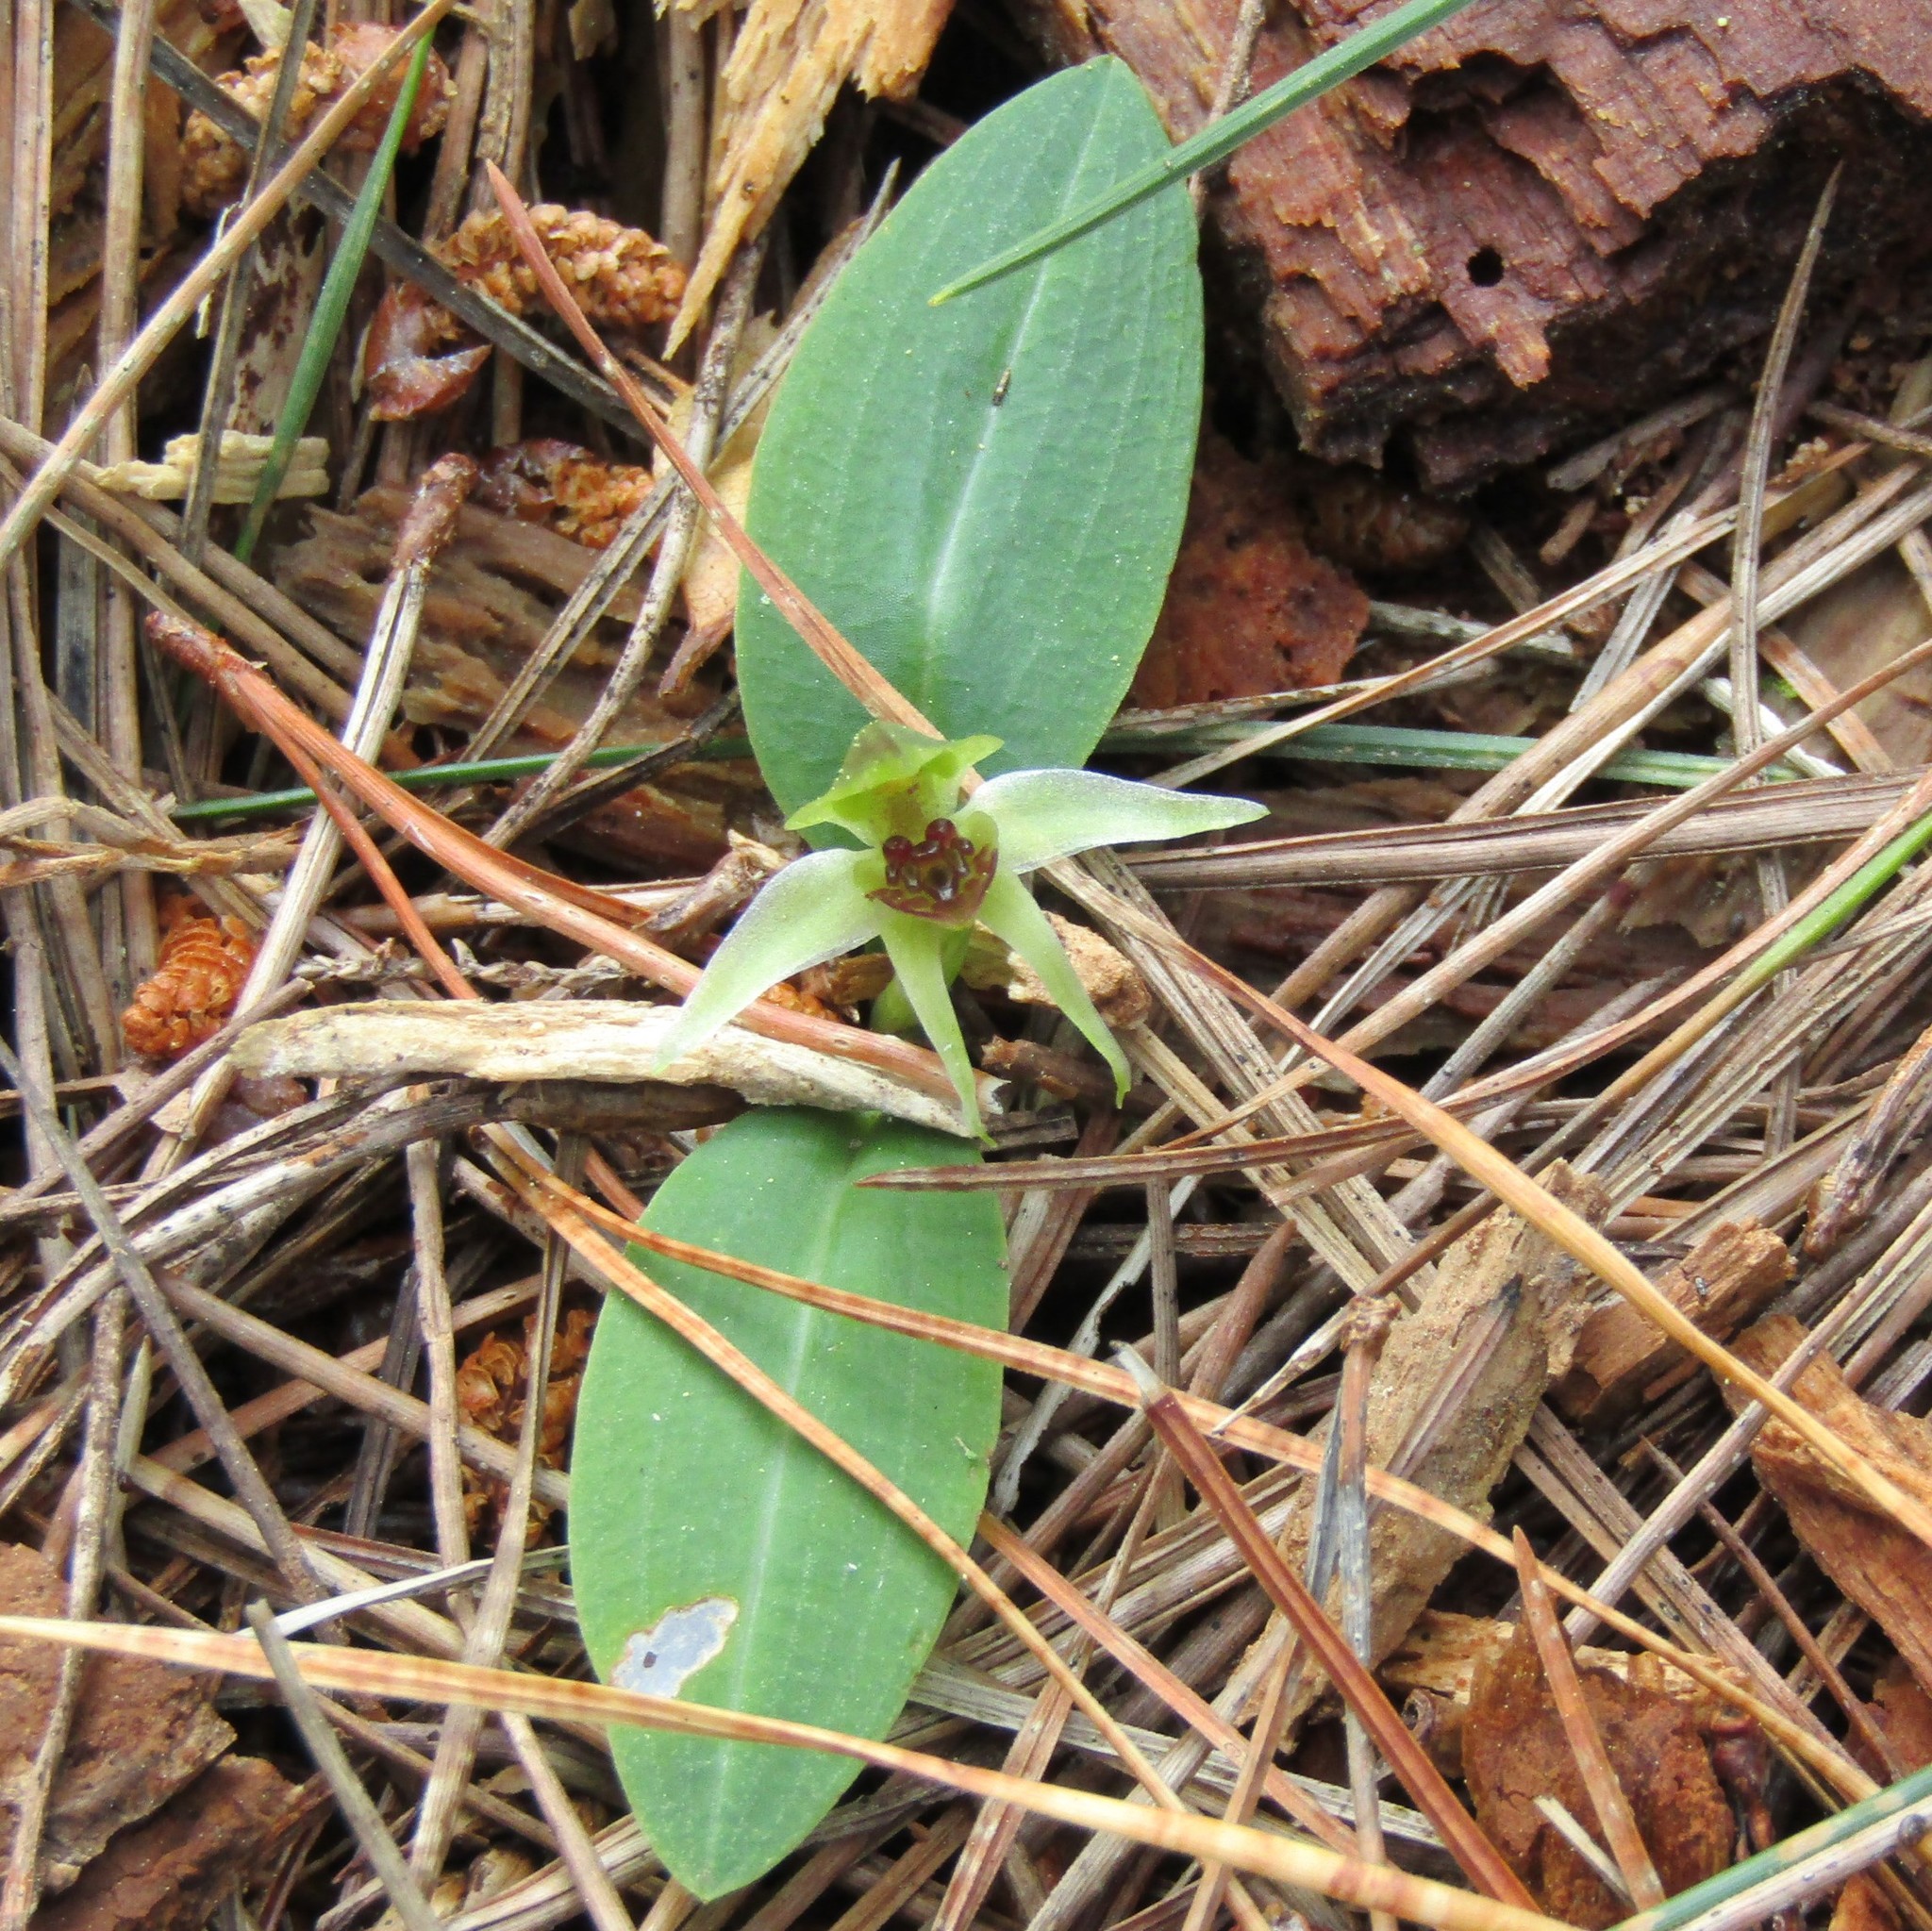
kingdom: Plantae
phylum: Tracheophyta
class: Liliopsida
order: Asparagales
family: Orchidaceae
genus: Chiloglottis
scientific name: Chiloglottis cornuta
